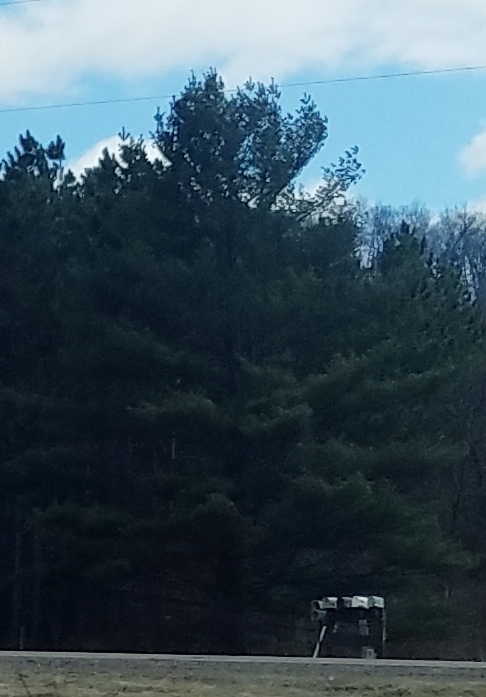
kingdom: Plantae
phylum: Tracheophyta
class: Pinopsida
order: Pinales
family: Pinaceae
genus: Pinus
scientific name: Pinus strobus
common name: Weymouth pine
